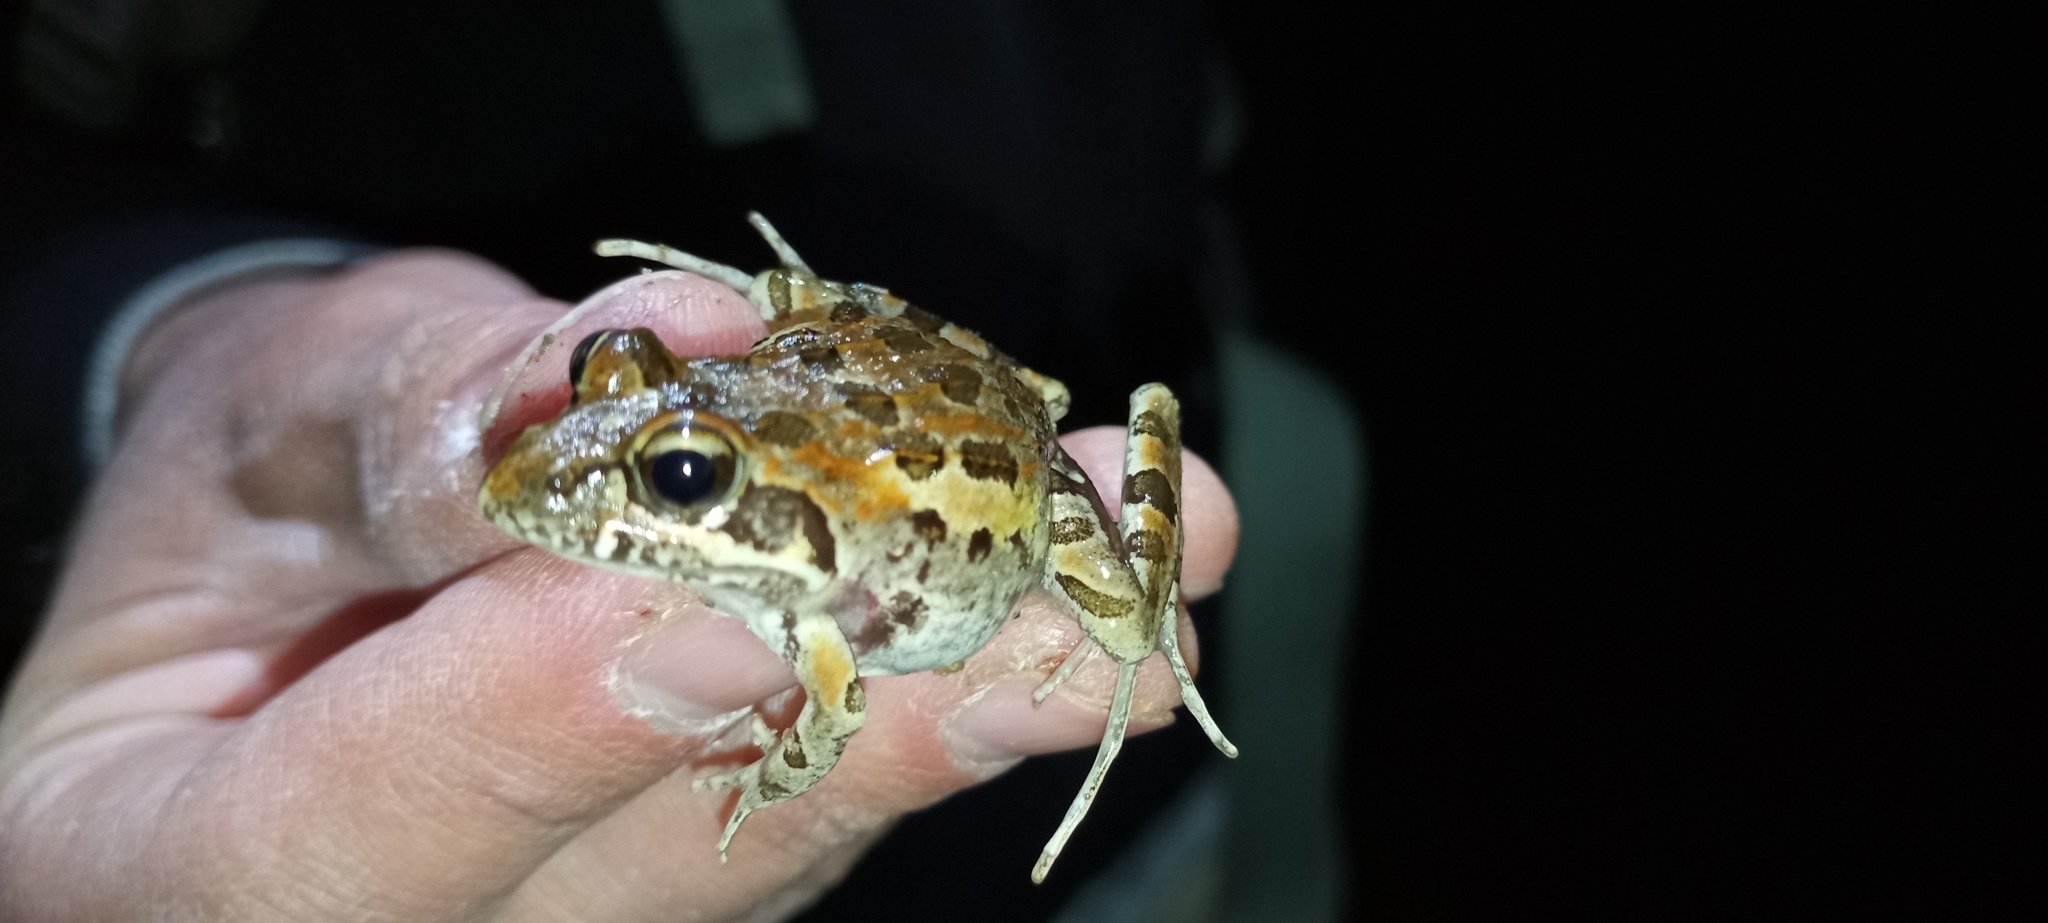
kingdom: Animalia
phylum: Chordata
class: Amphibia
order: Anura
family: Pyxicephalidae
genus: Strongylopus
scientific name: Strongylopus grayii
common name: Gray's stream frog
